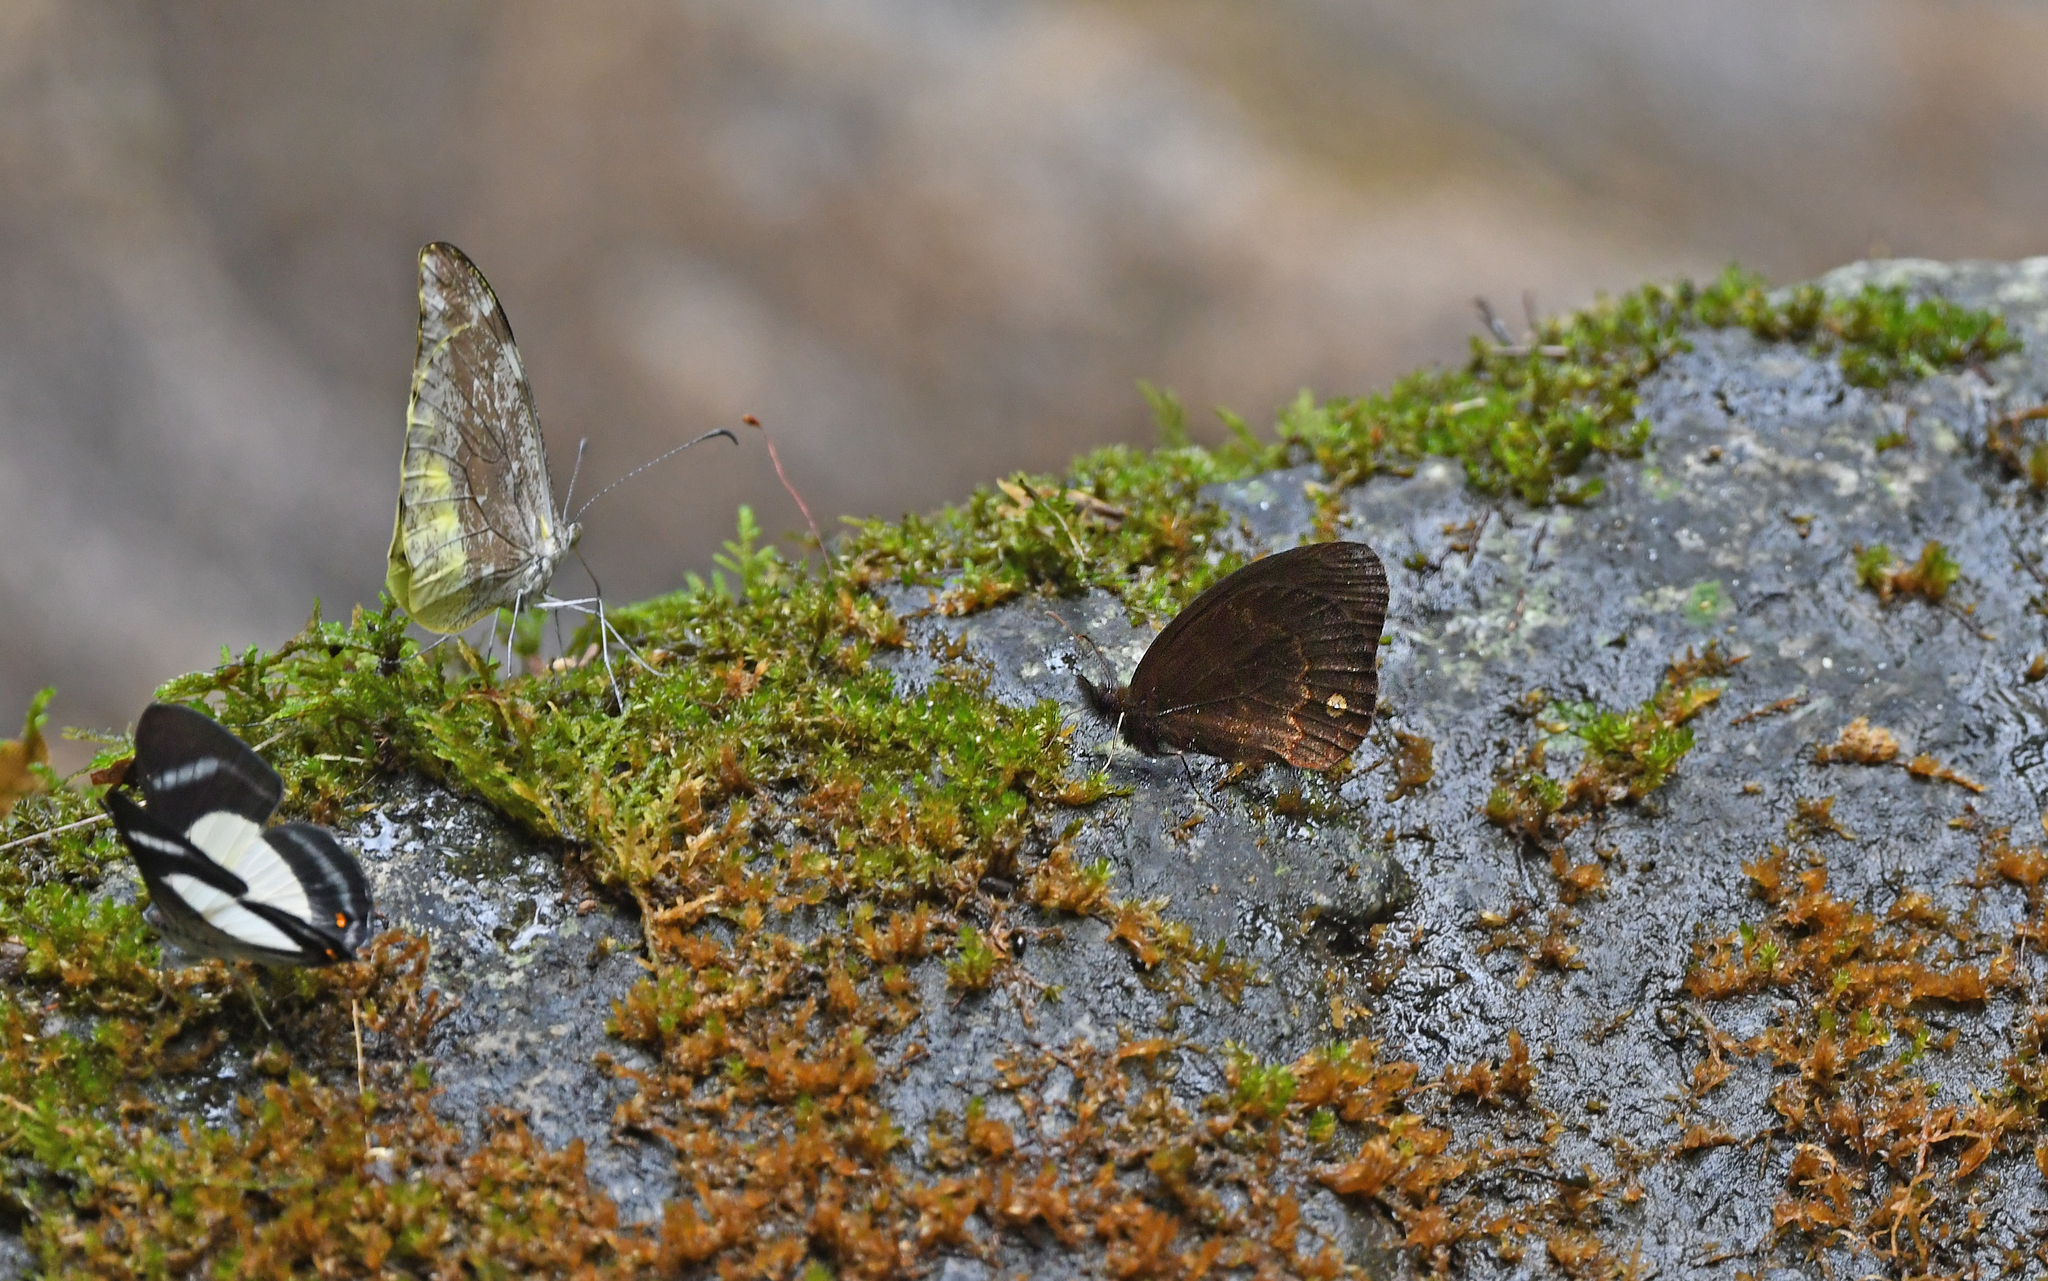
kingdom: Animalia
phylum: Arthropoda
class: Insecta
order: Lepidoptera
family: Nymphalidae
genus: Manerebia
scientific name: Manerebia cyclopina
